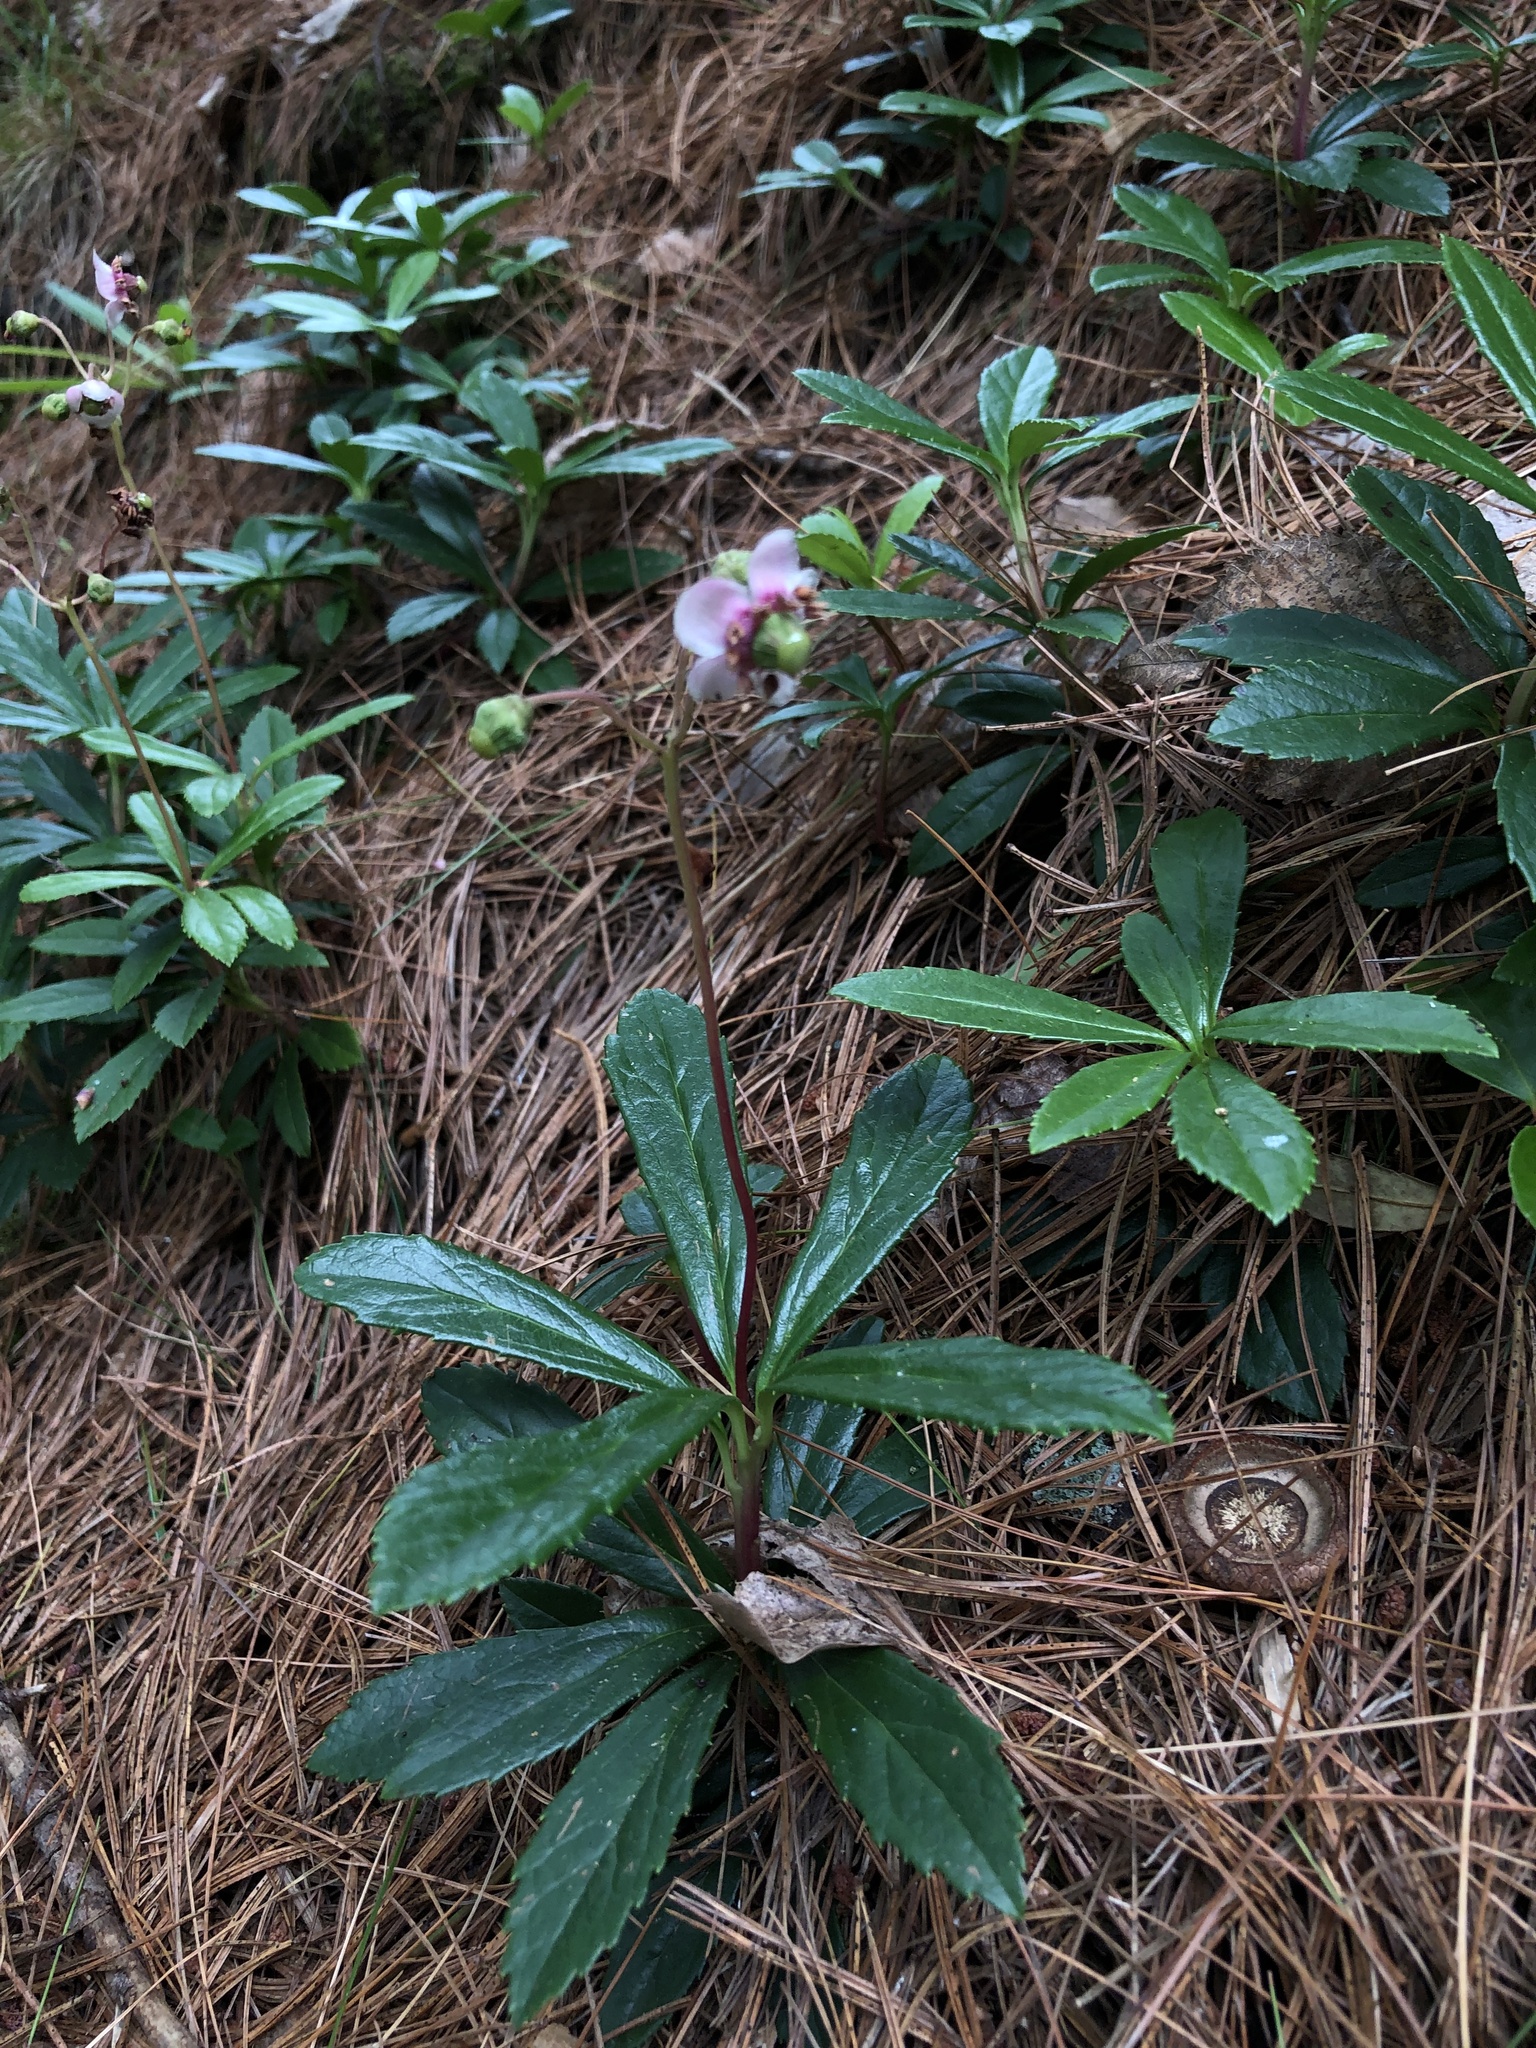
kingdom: Plantae
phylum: Tracheophyta
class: Magnoliopsida
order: Ericales
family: Ericaceae
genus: Chimaphila
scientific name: Chimaphila umbellata
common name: Pipsissewa
